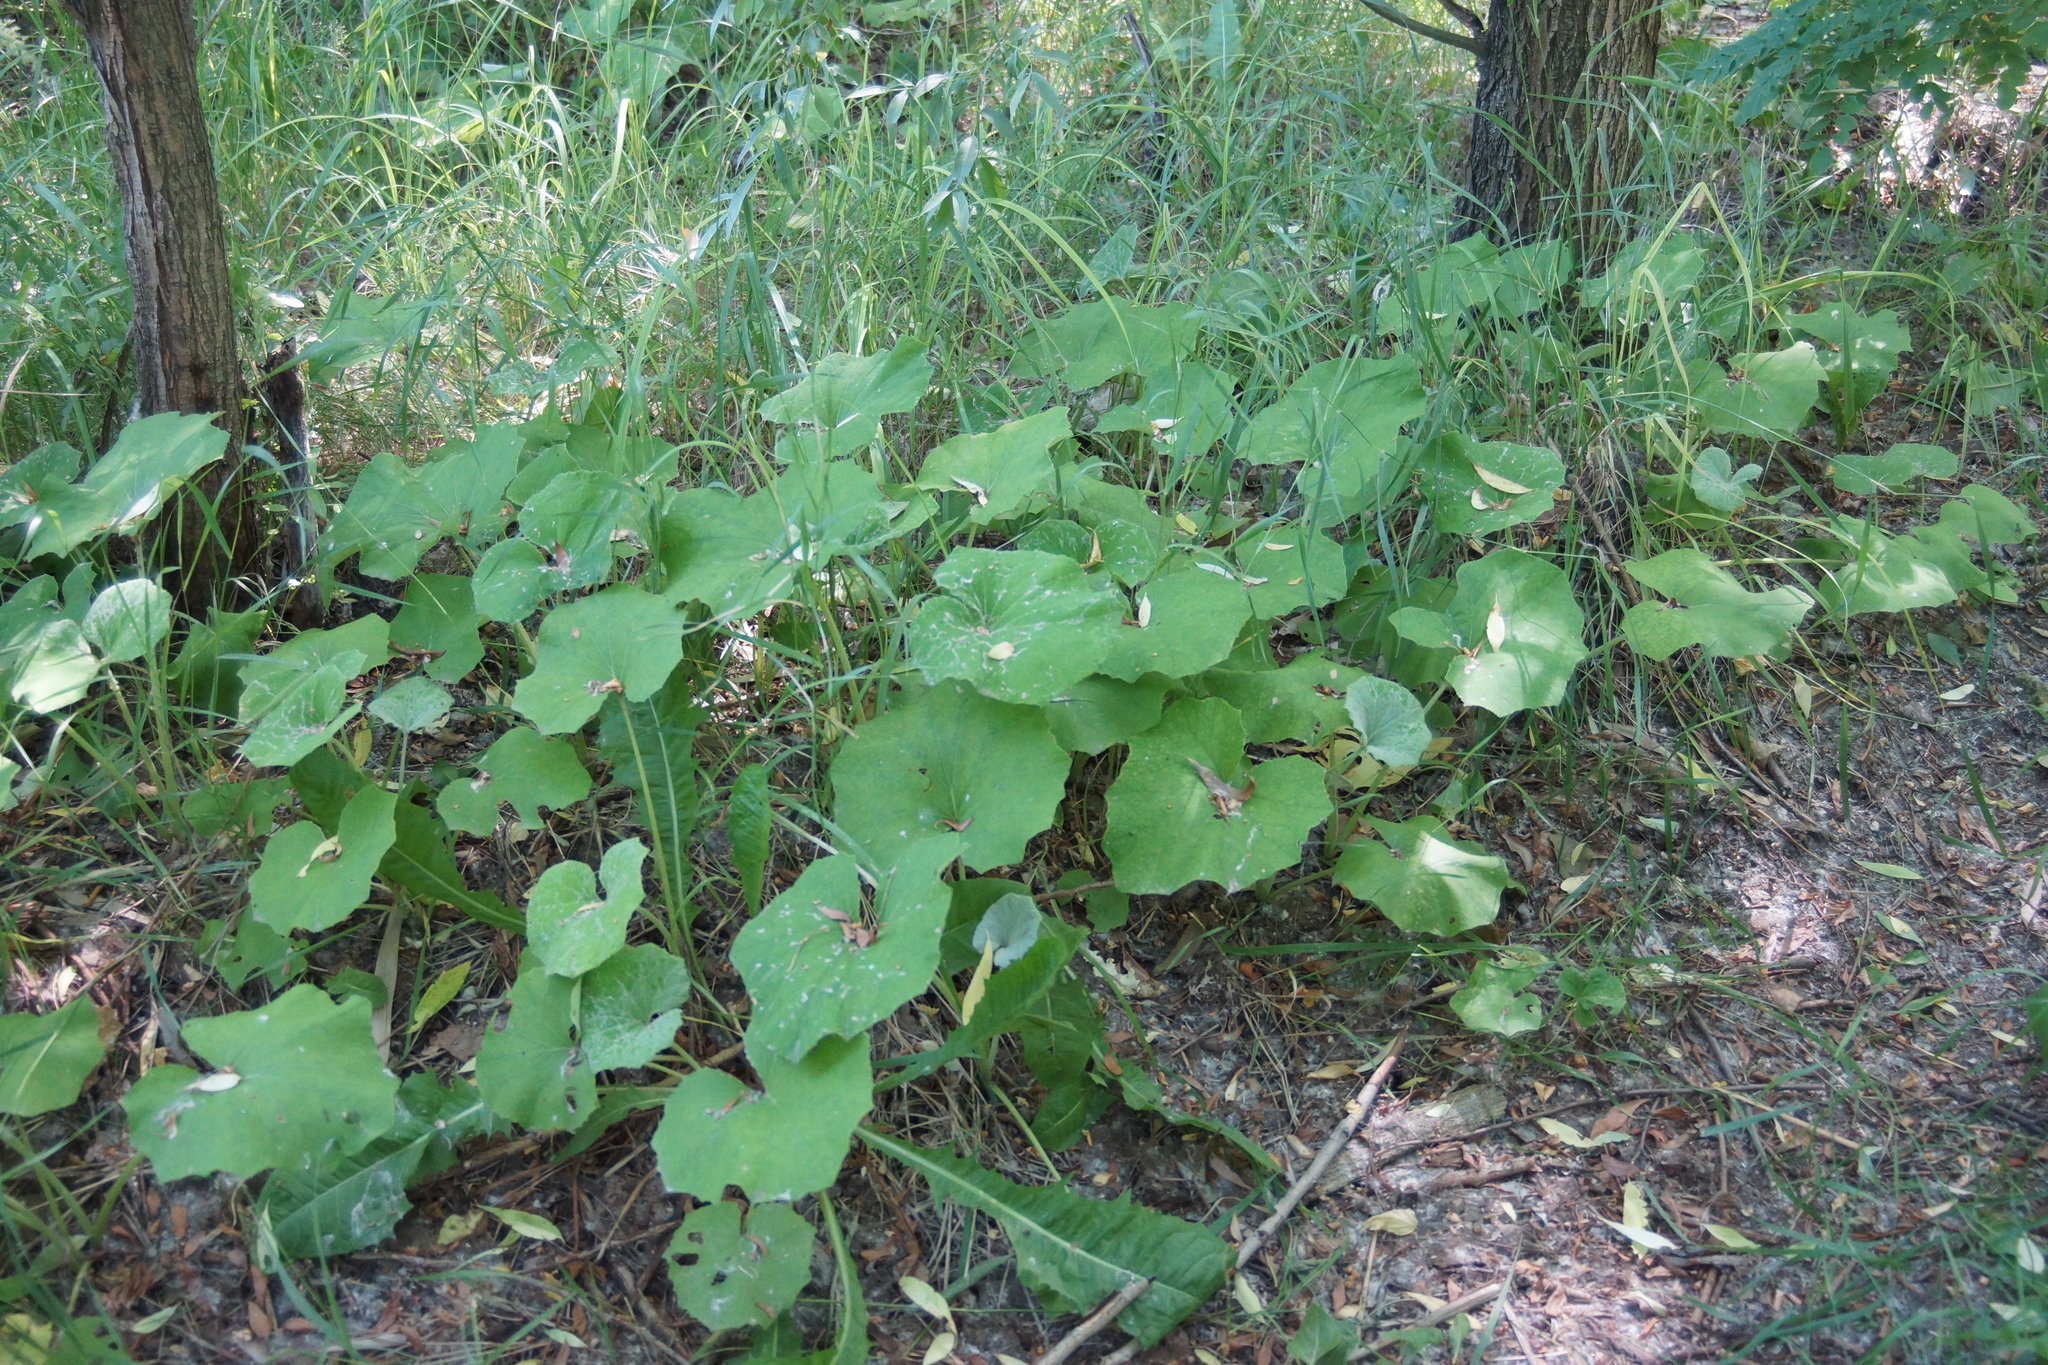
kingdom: Plantae
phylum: Tracheophyta
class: Magnoliopsida
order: Asterales
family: Asteraceae
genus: Tussilago
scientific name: Tussilago farfara
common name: Coltsfoot
